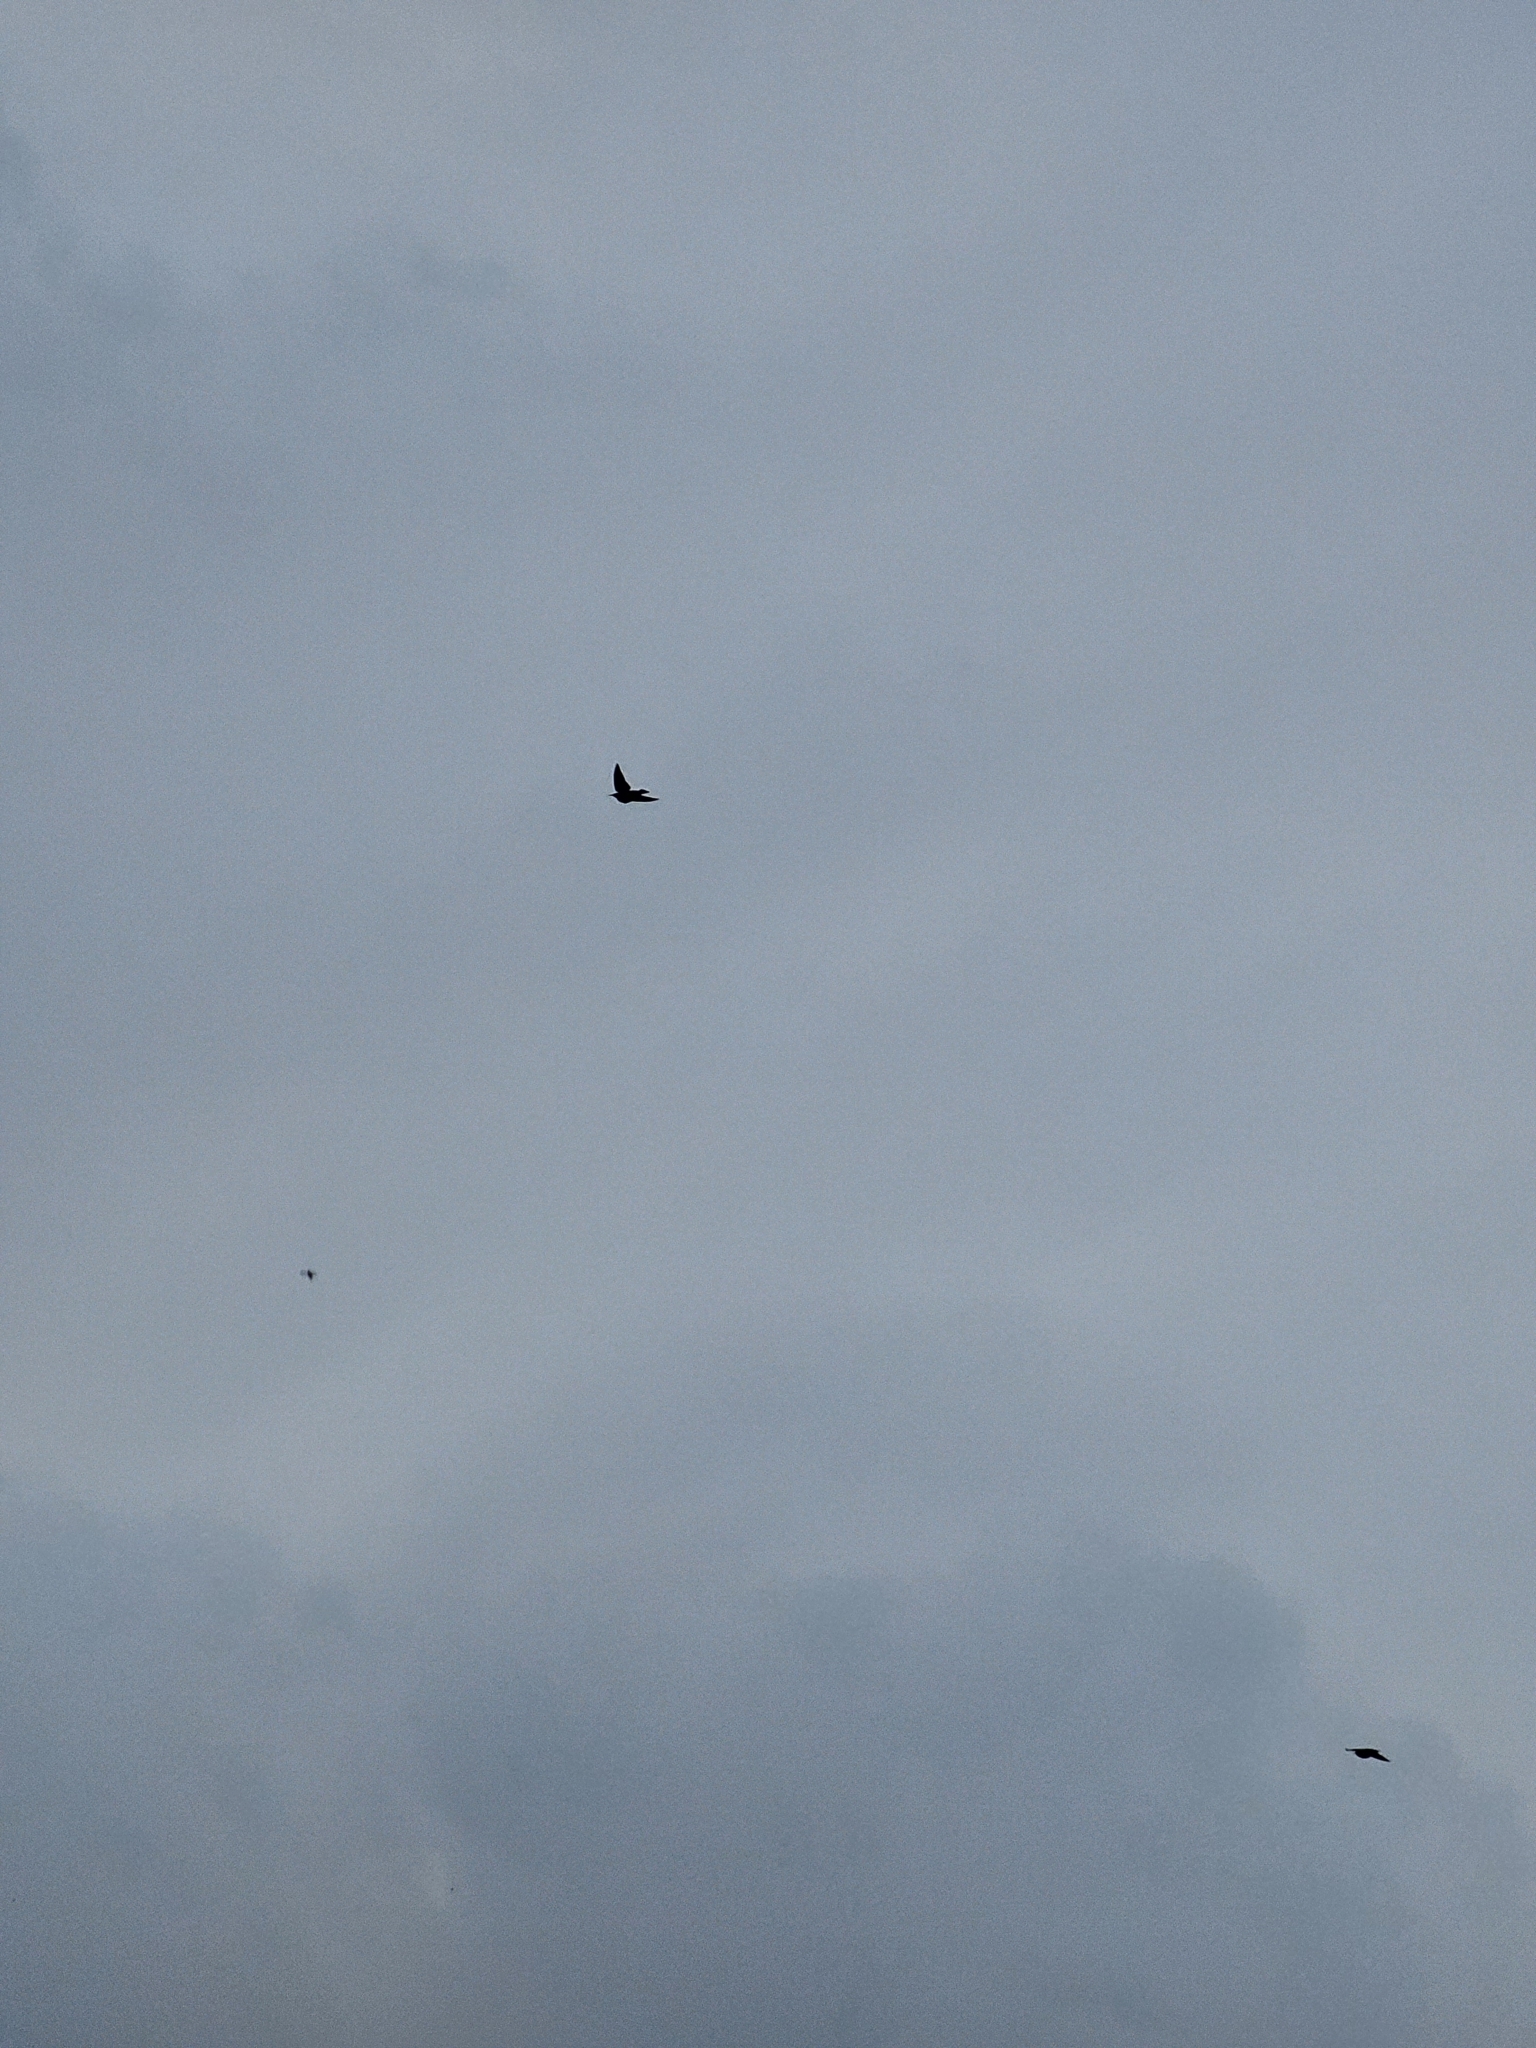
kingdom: Animalia
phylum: Chordata
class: Aves
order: Passeriformes
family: Sturnidae
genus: Sturnus
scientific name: Sturnus vulgaris
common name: Common starling
